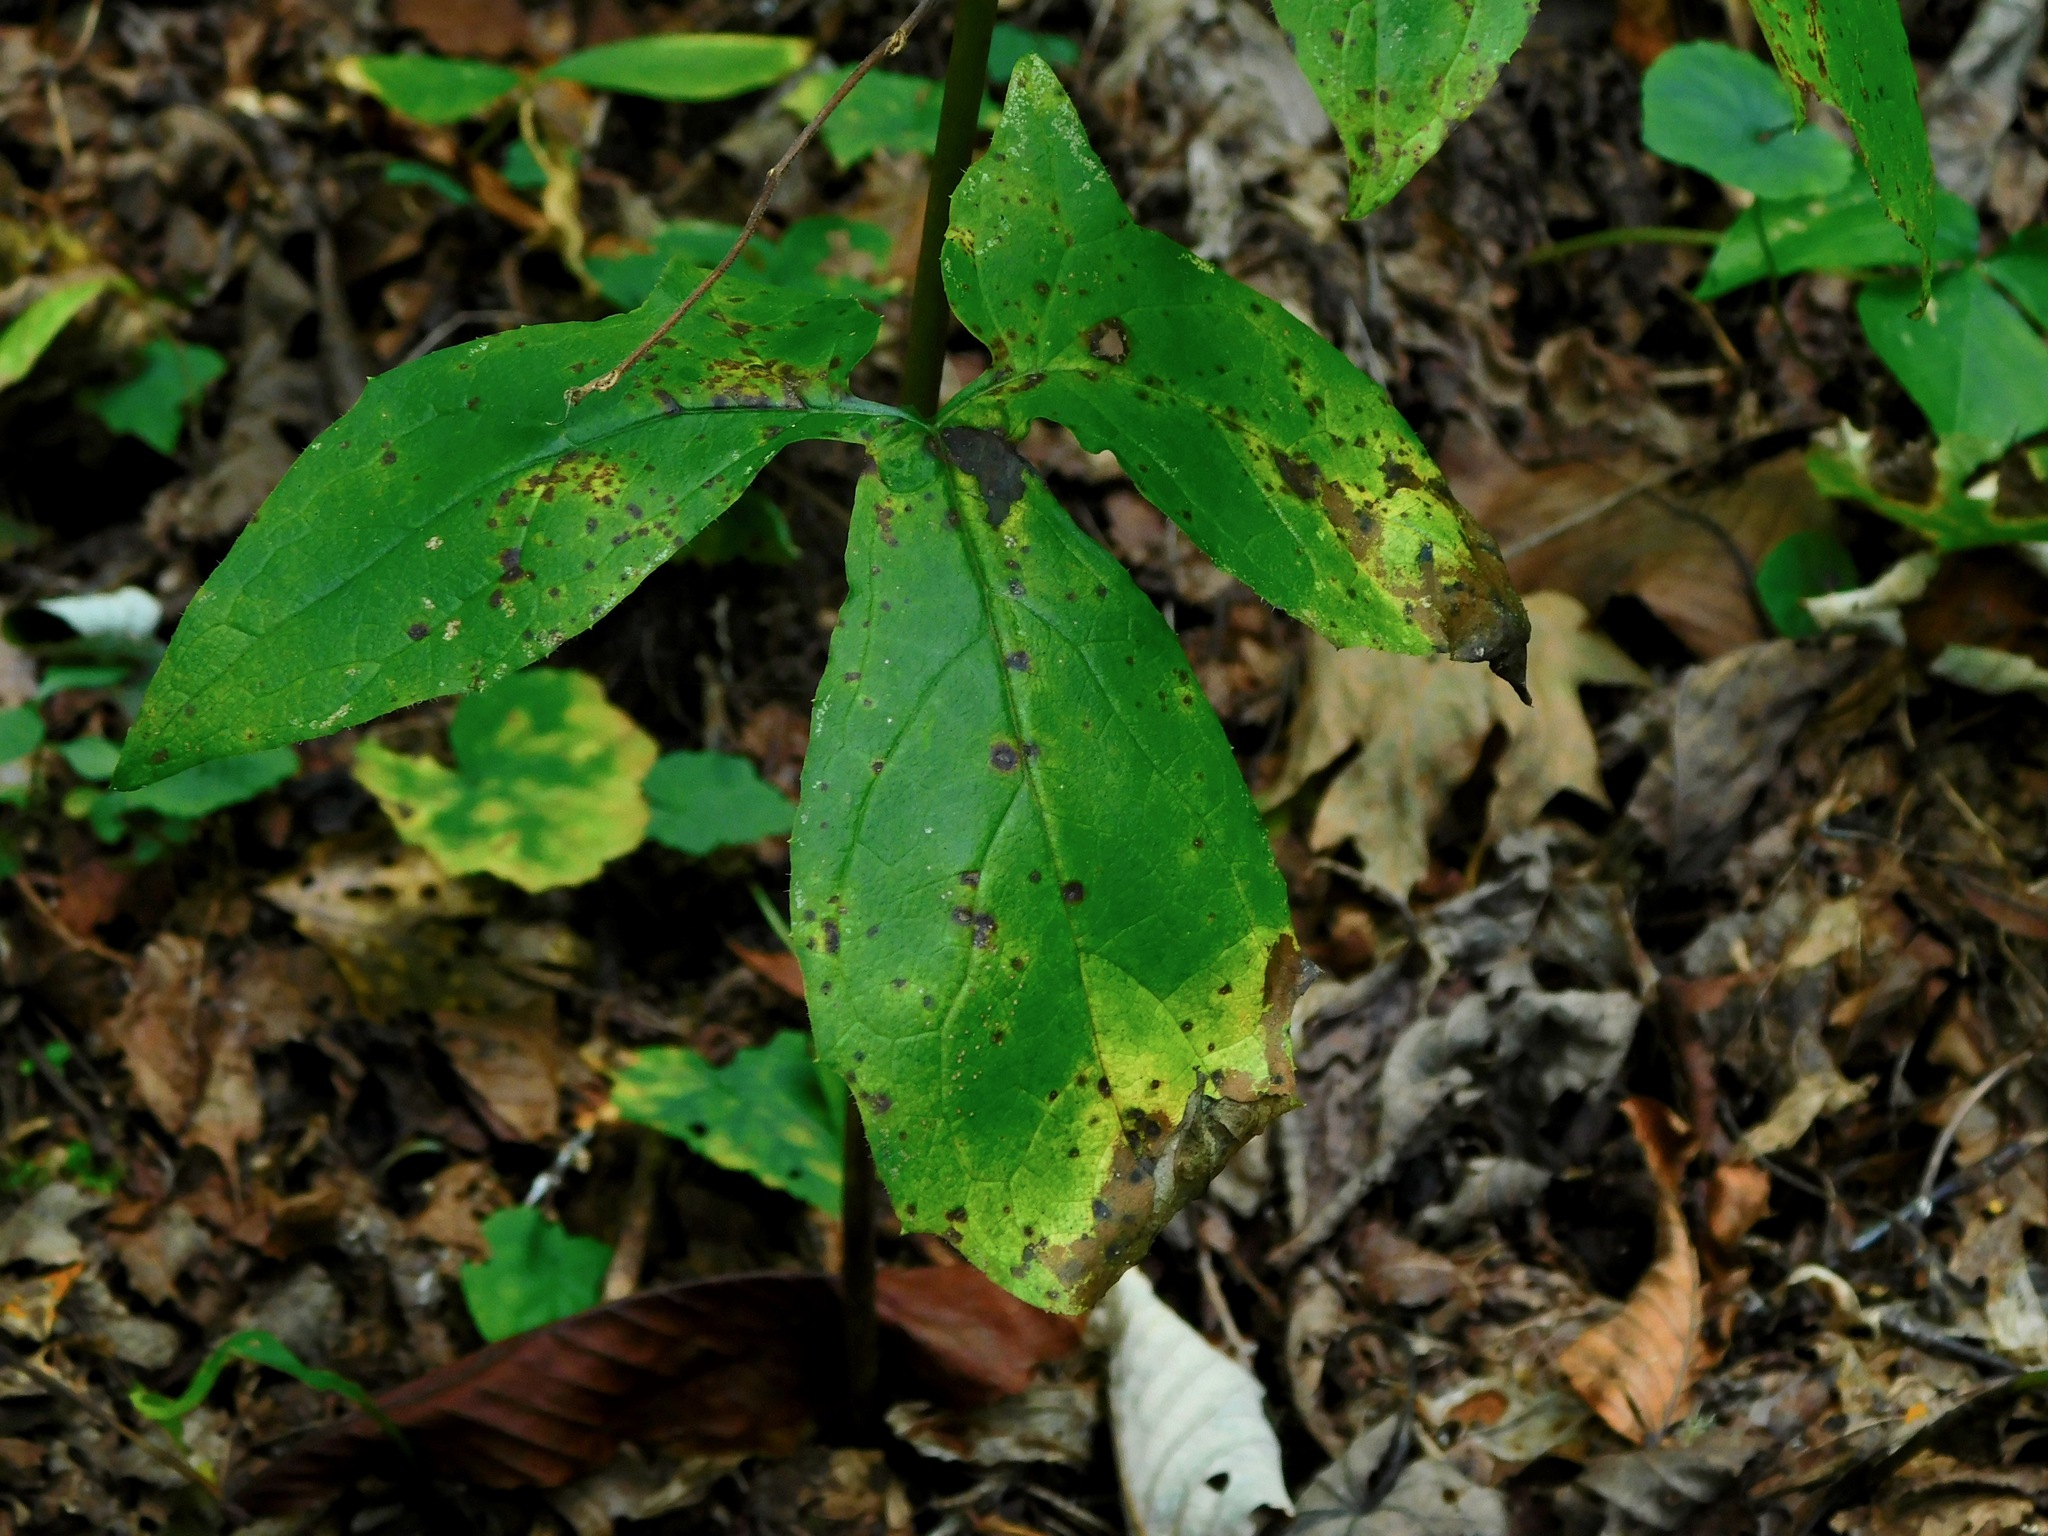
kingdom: Plantae
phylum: Tracheophyta
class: Magnoliopsida
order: Asterales
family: Asteraceae
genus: Nabalus
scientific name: Nabalus altissima
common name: Tall rattlesnakeroot
